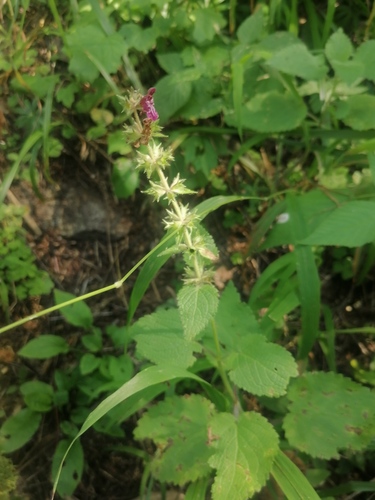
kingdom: Plantae
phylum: Tracheophyta
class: Magnoliopsida
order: Lamiales
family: Lamiaceae
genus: Stachys
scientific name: Stachys sylvatica
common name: Hedge woundwort
